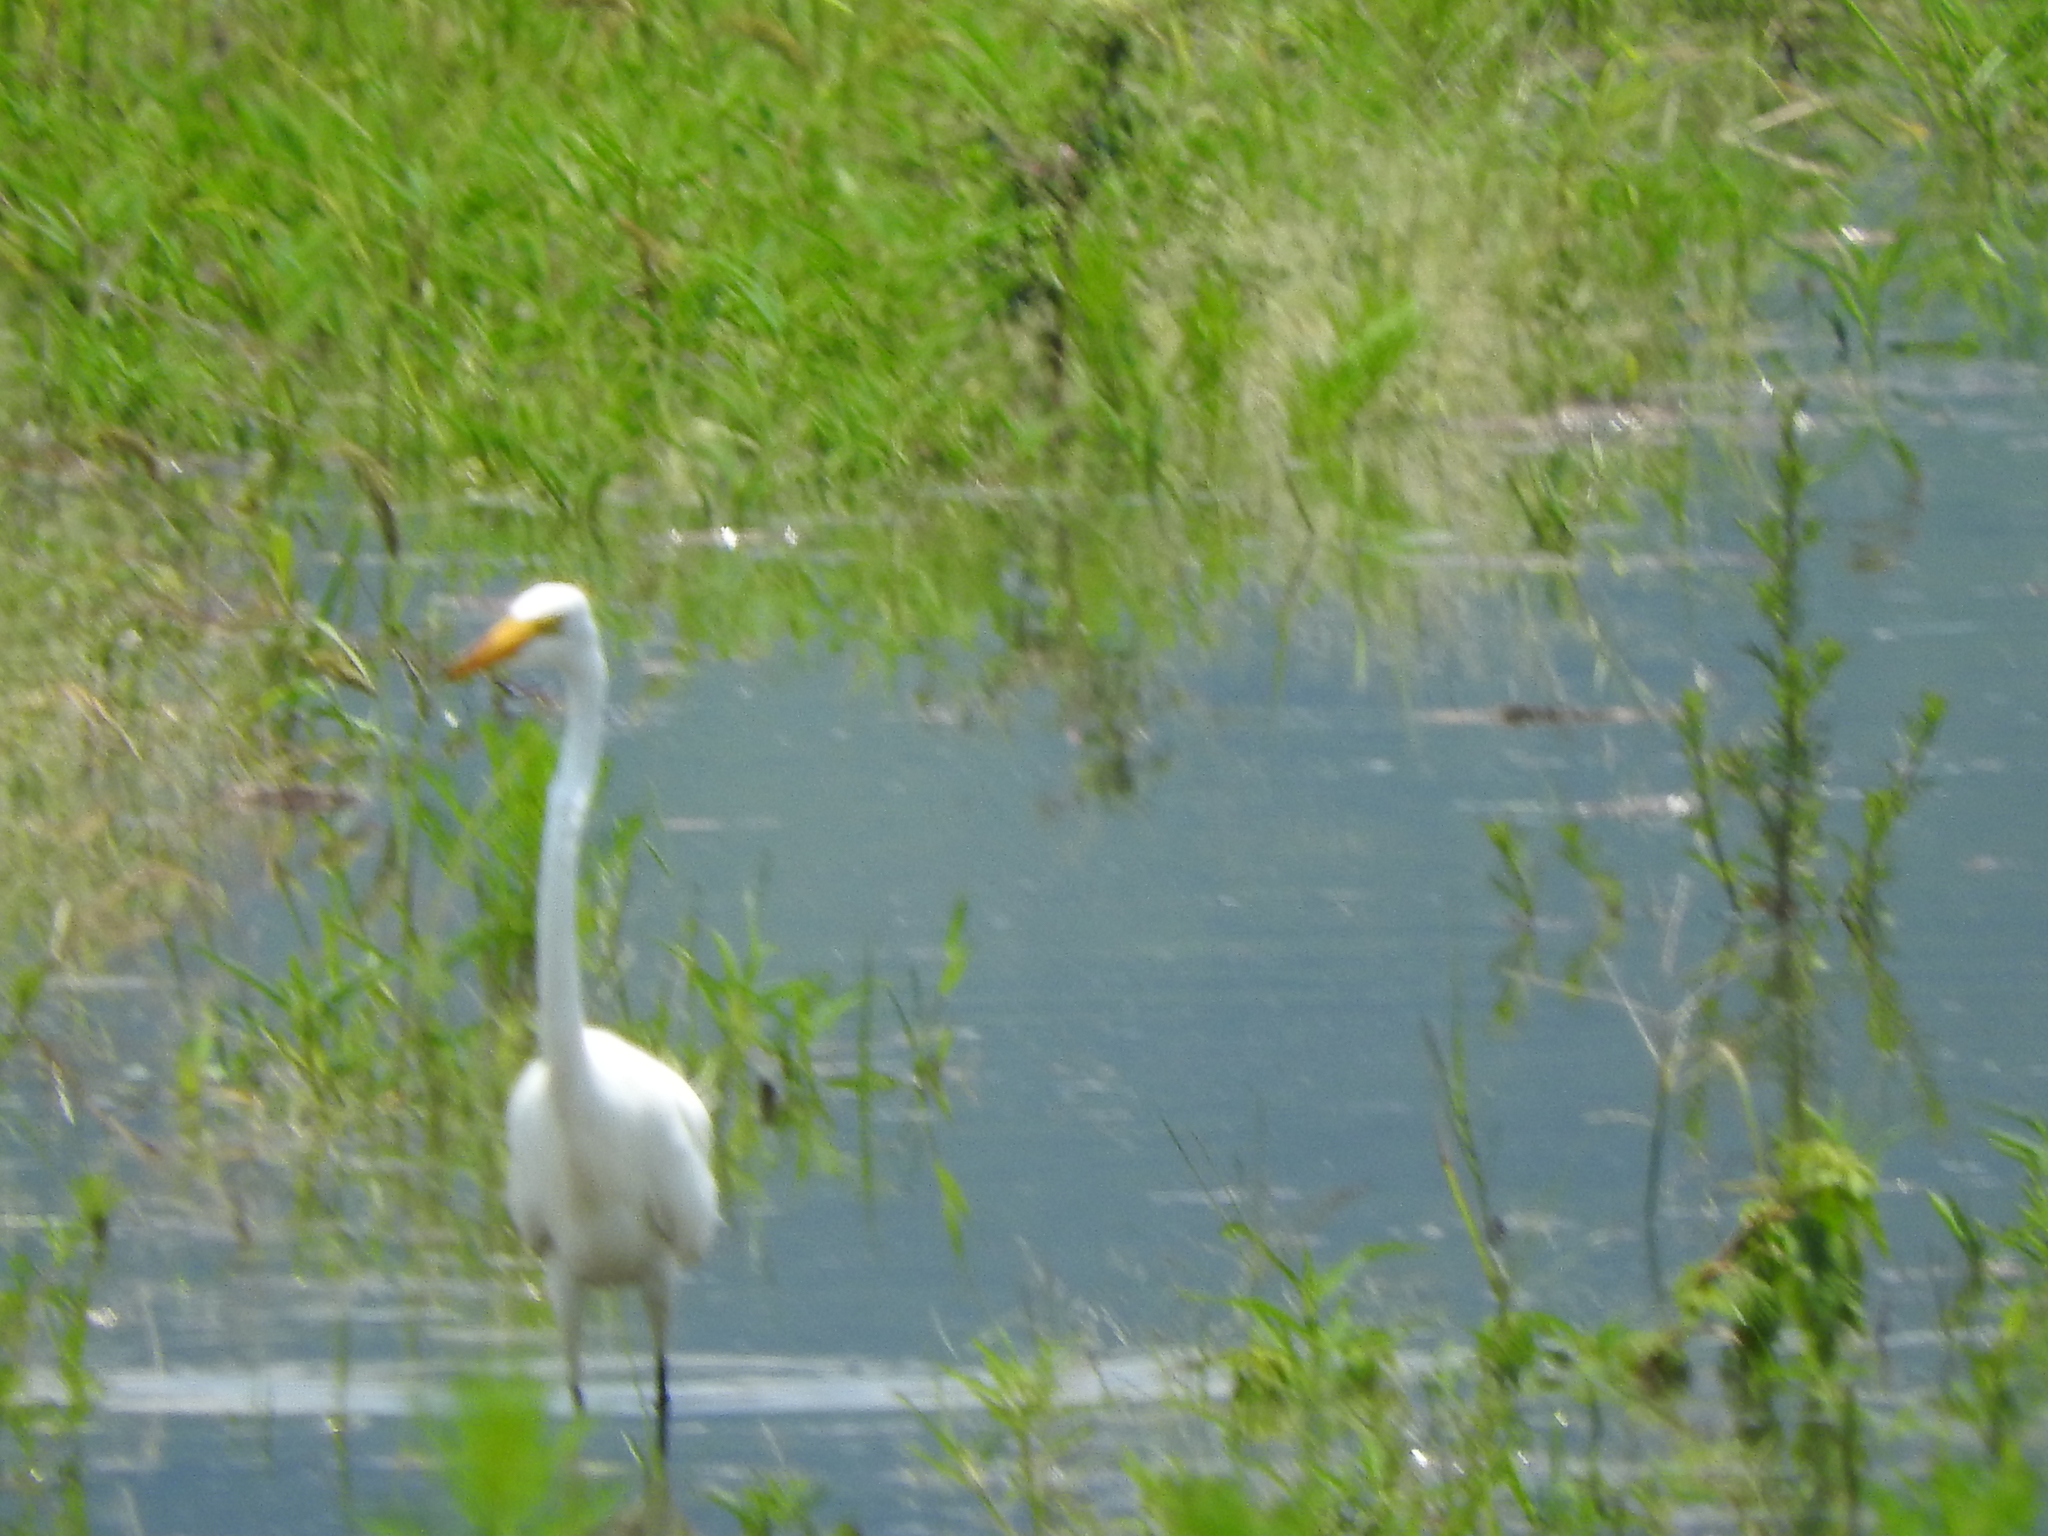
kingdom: Animalia
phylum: Chordata
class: Aves
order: Pelecaniformes
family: Ardeidae
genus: Ardea
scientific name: Ardea alba
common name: Great egret
